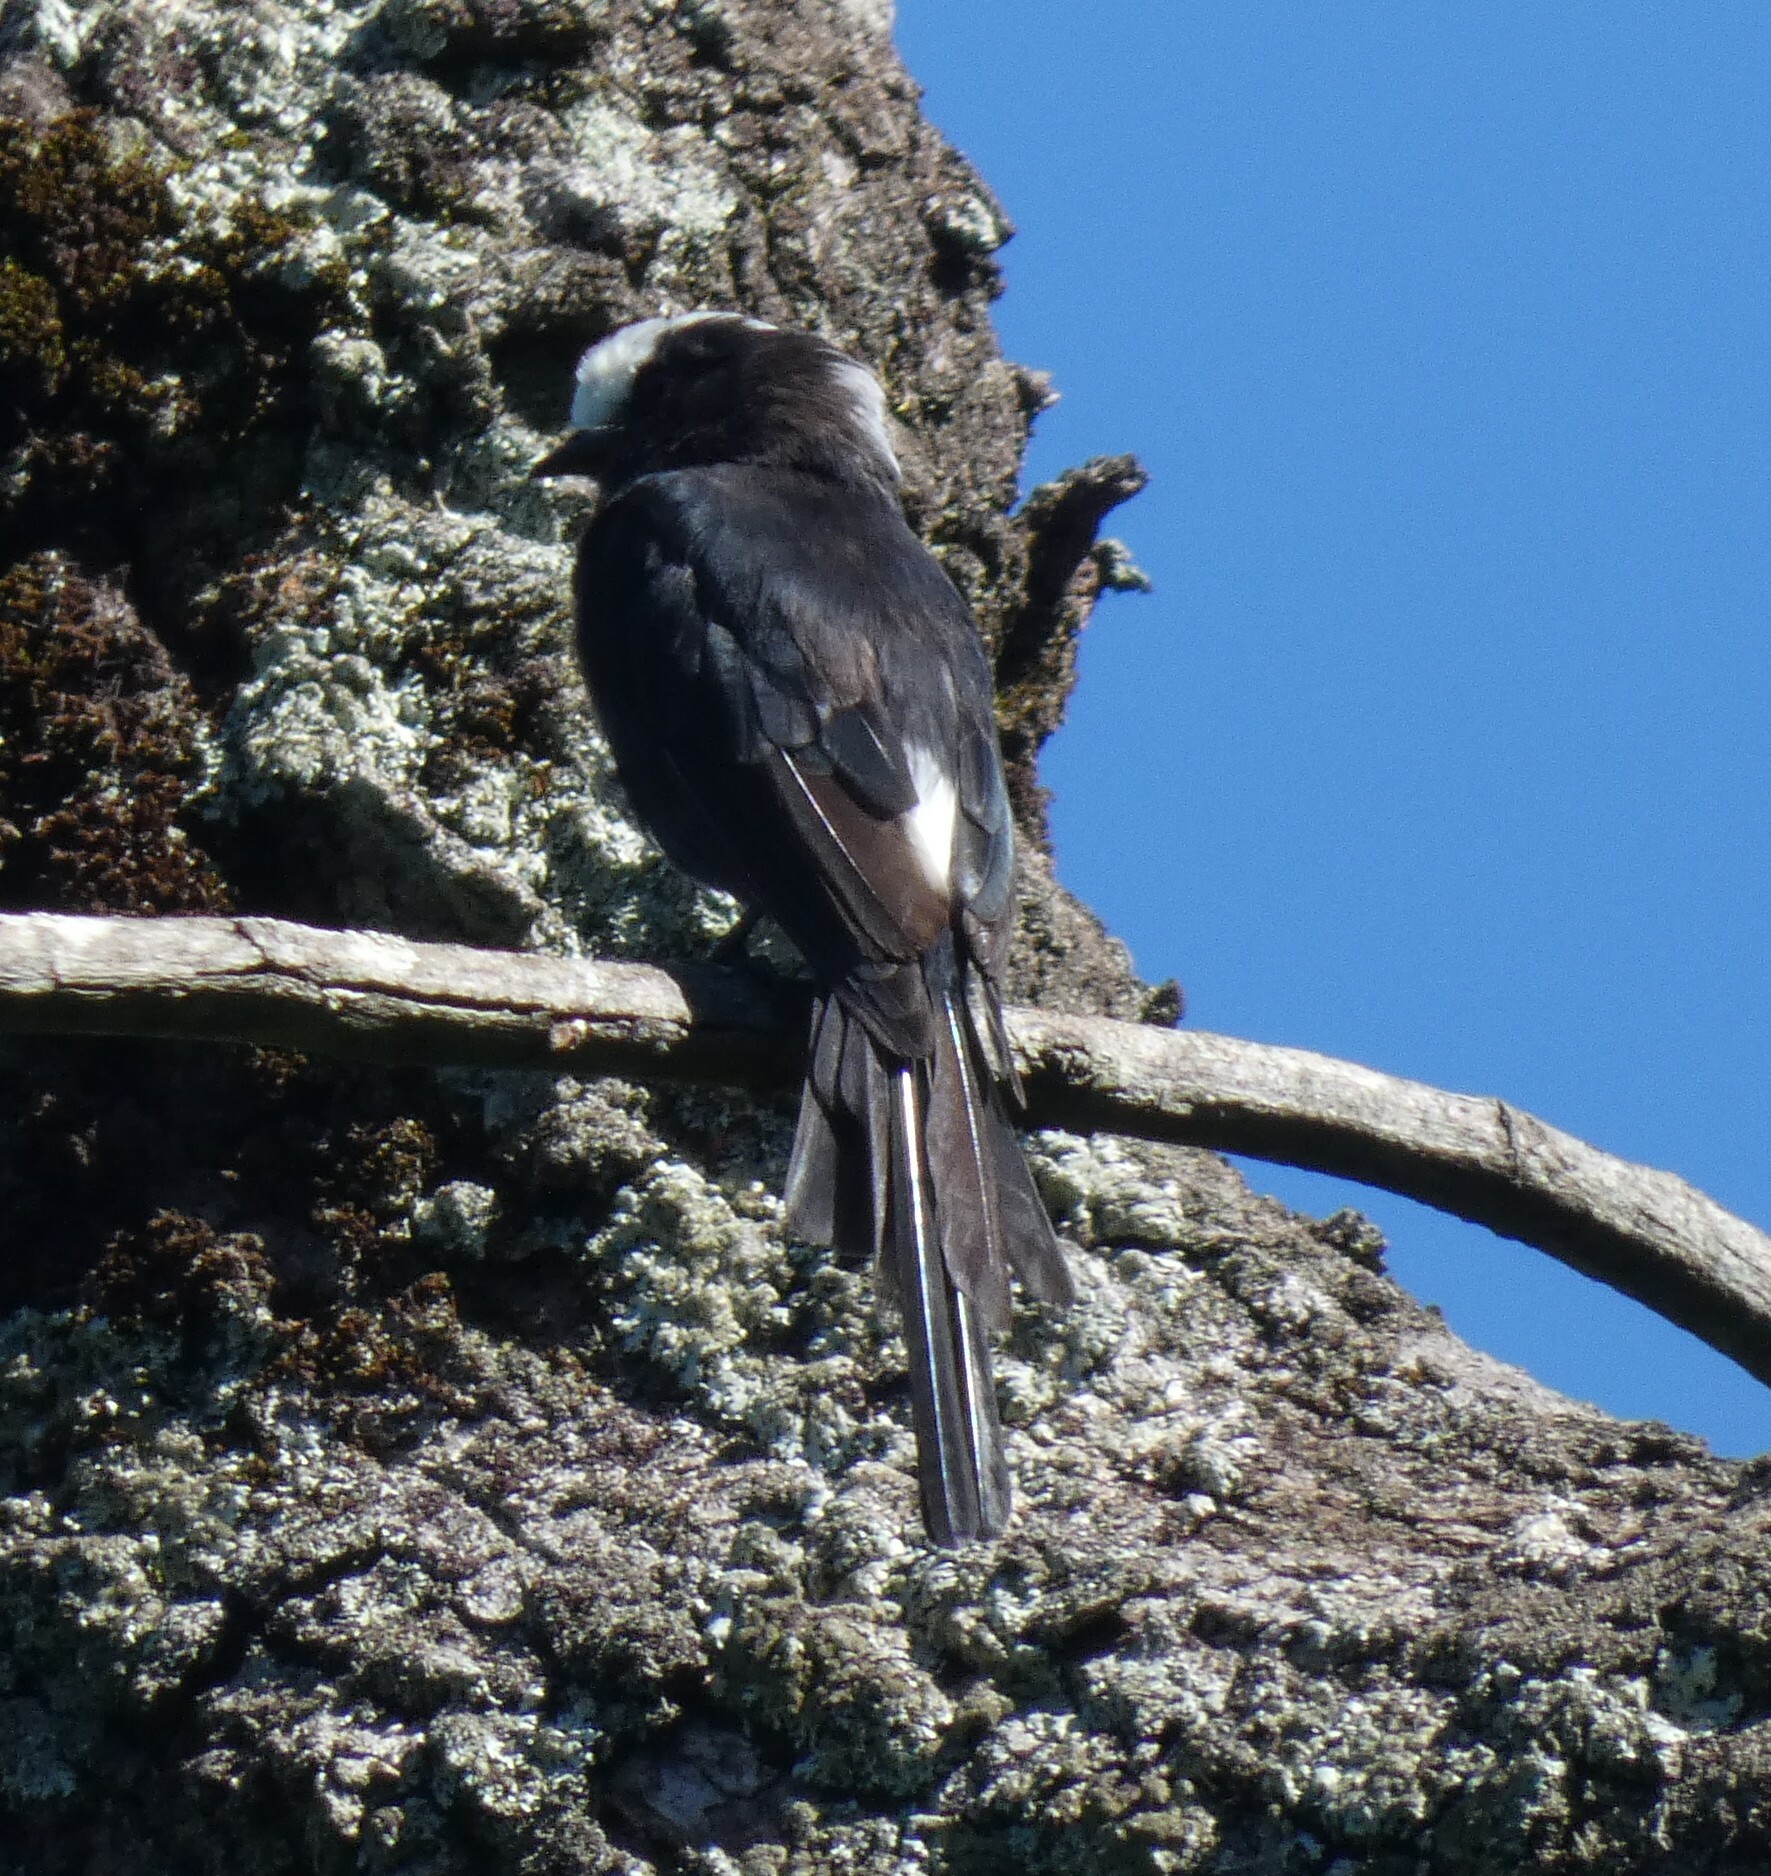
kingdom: Animalia
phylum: Chordata
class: Aves
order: Passeriformes
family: Tyrannidae
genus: Colonia
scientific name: Colonia colonus
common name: Long-tailed tyrant
